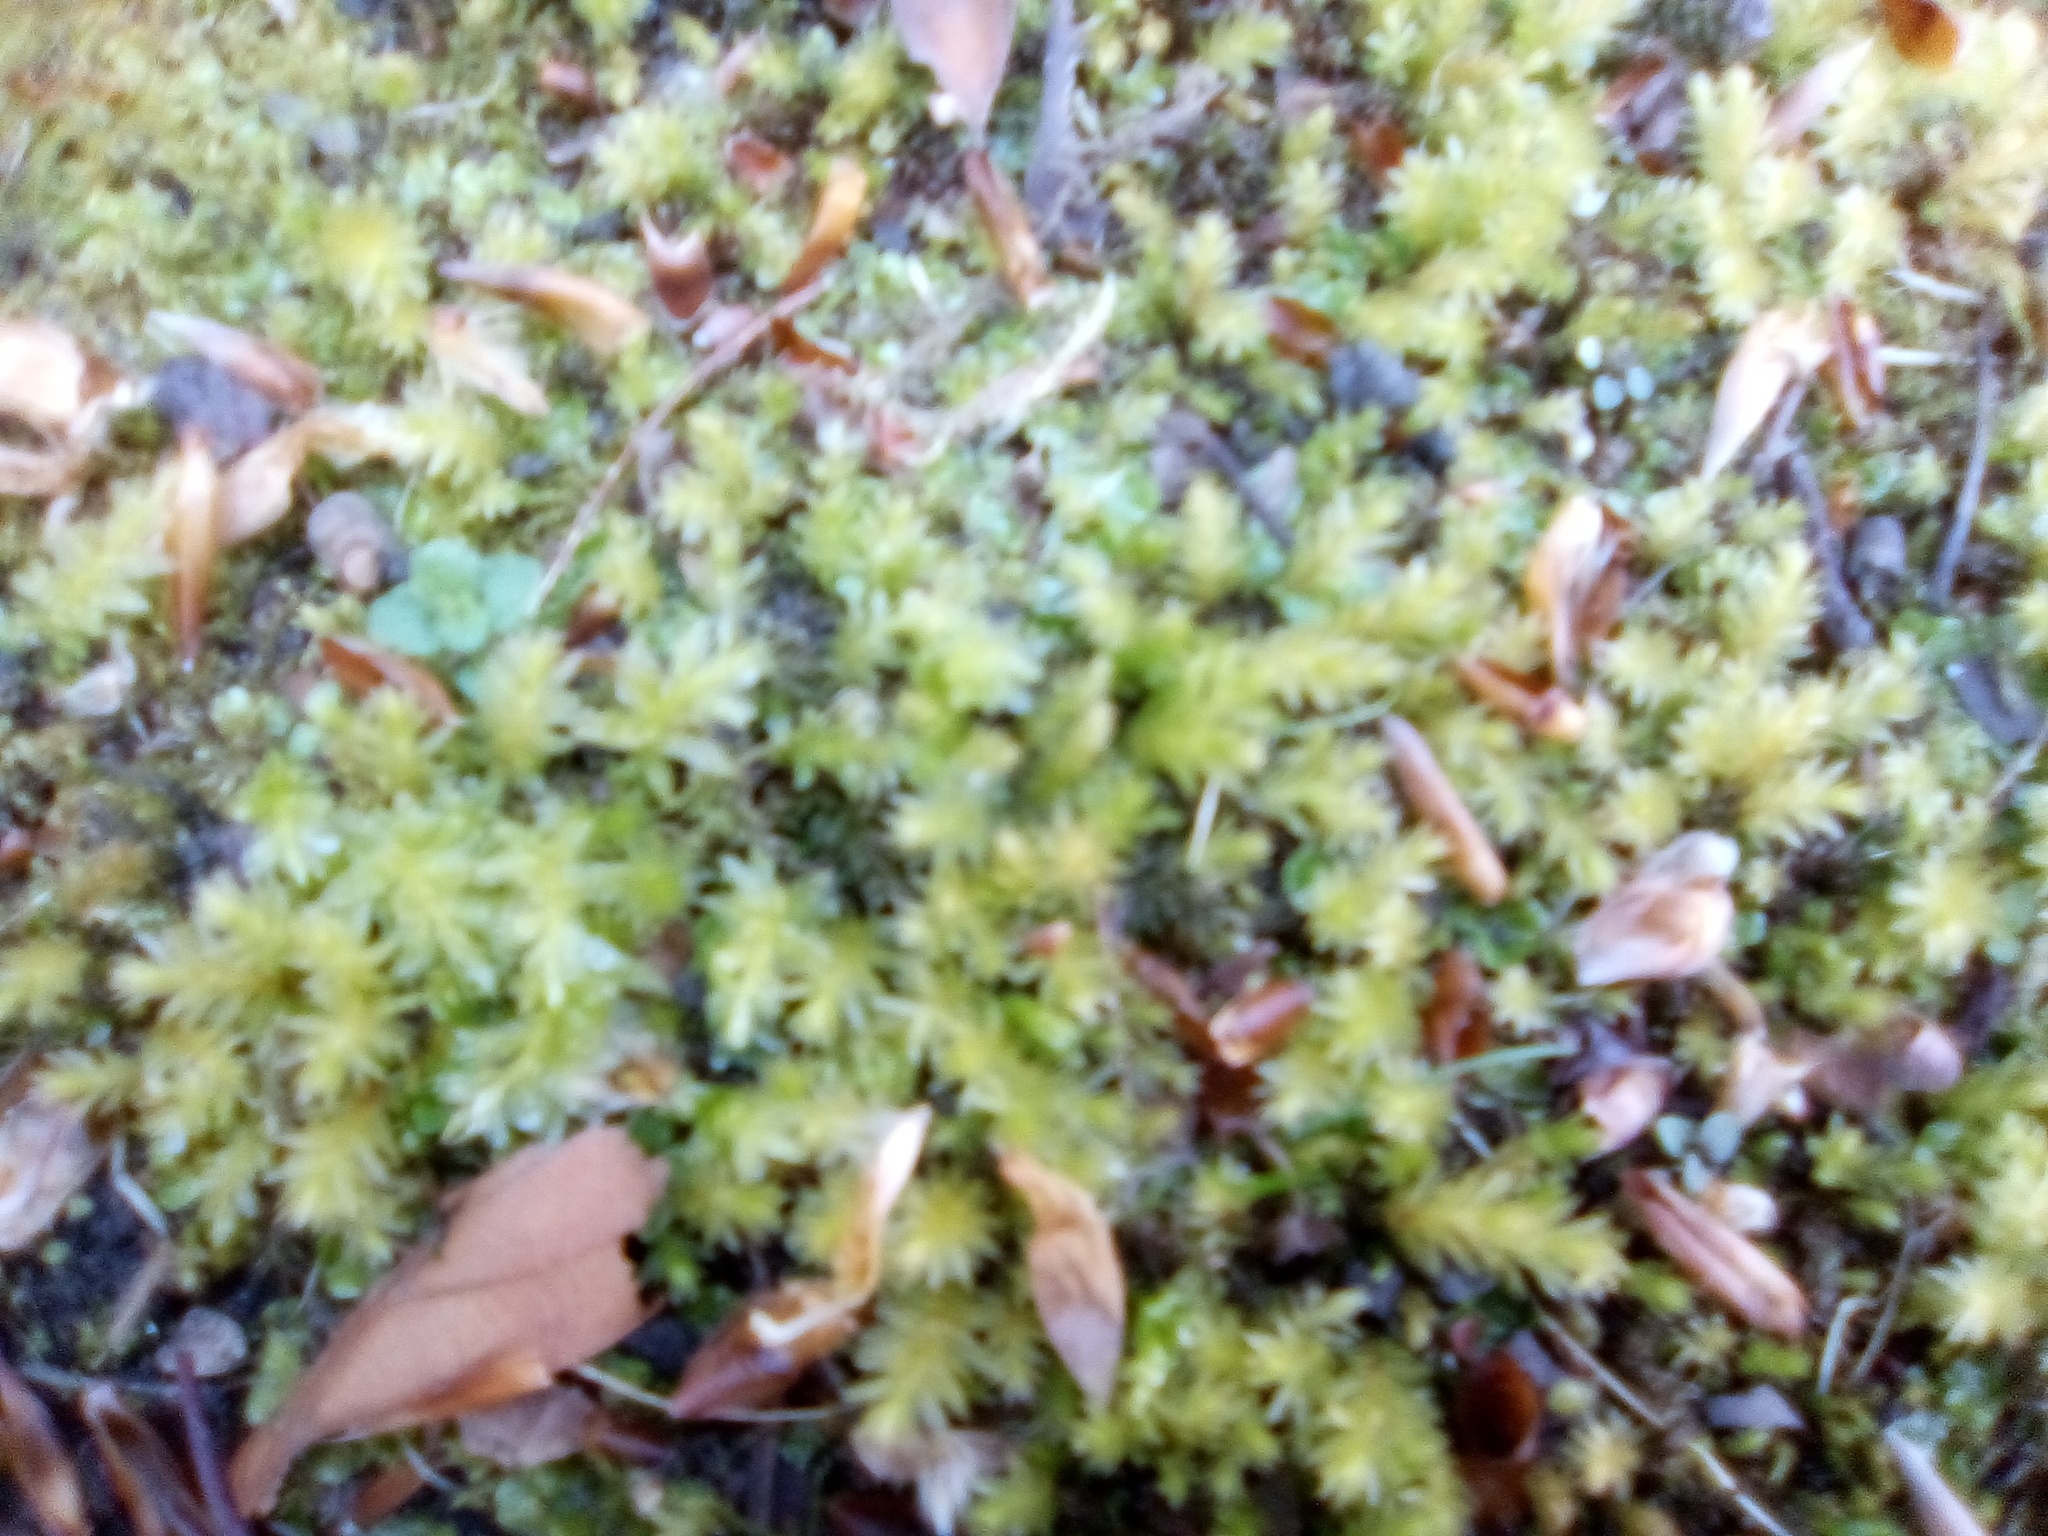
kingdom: Plantae
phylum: Bryophyta
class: Bryopsida
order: Bryales
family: Mniaceae
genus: Mnium
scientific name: Mnium hornum
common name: Swan's-neck leafy moss
